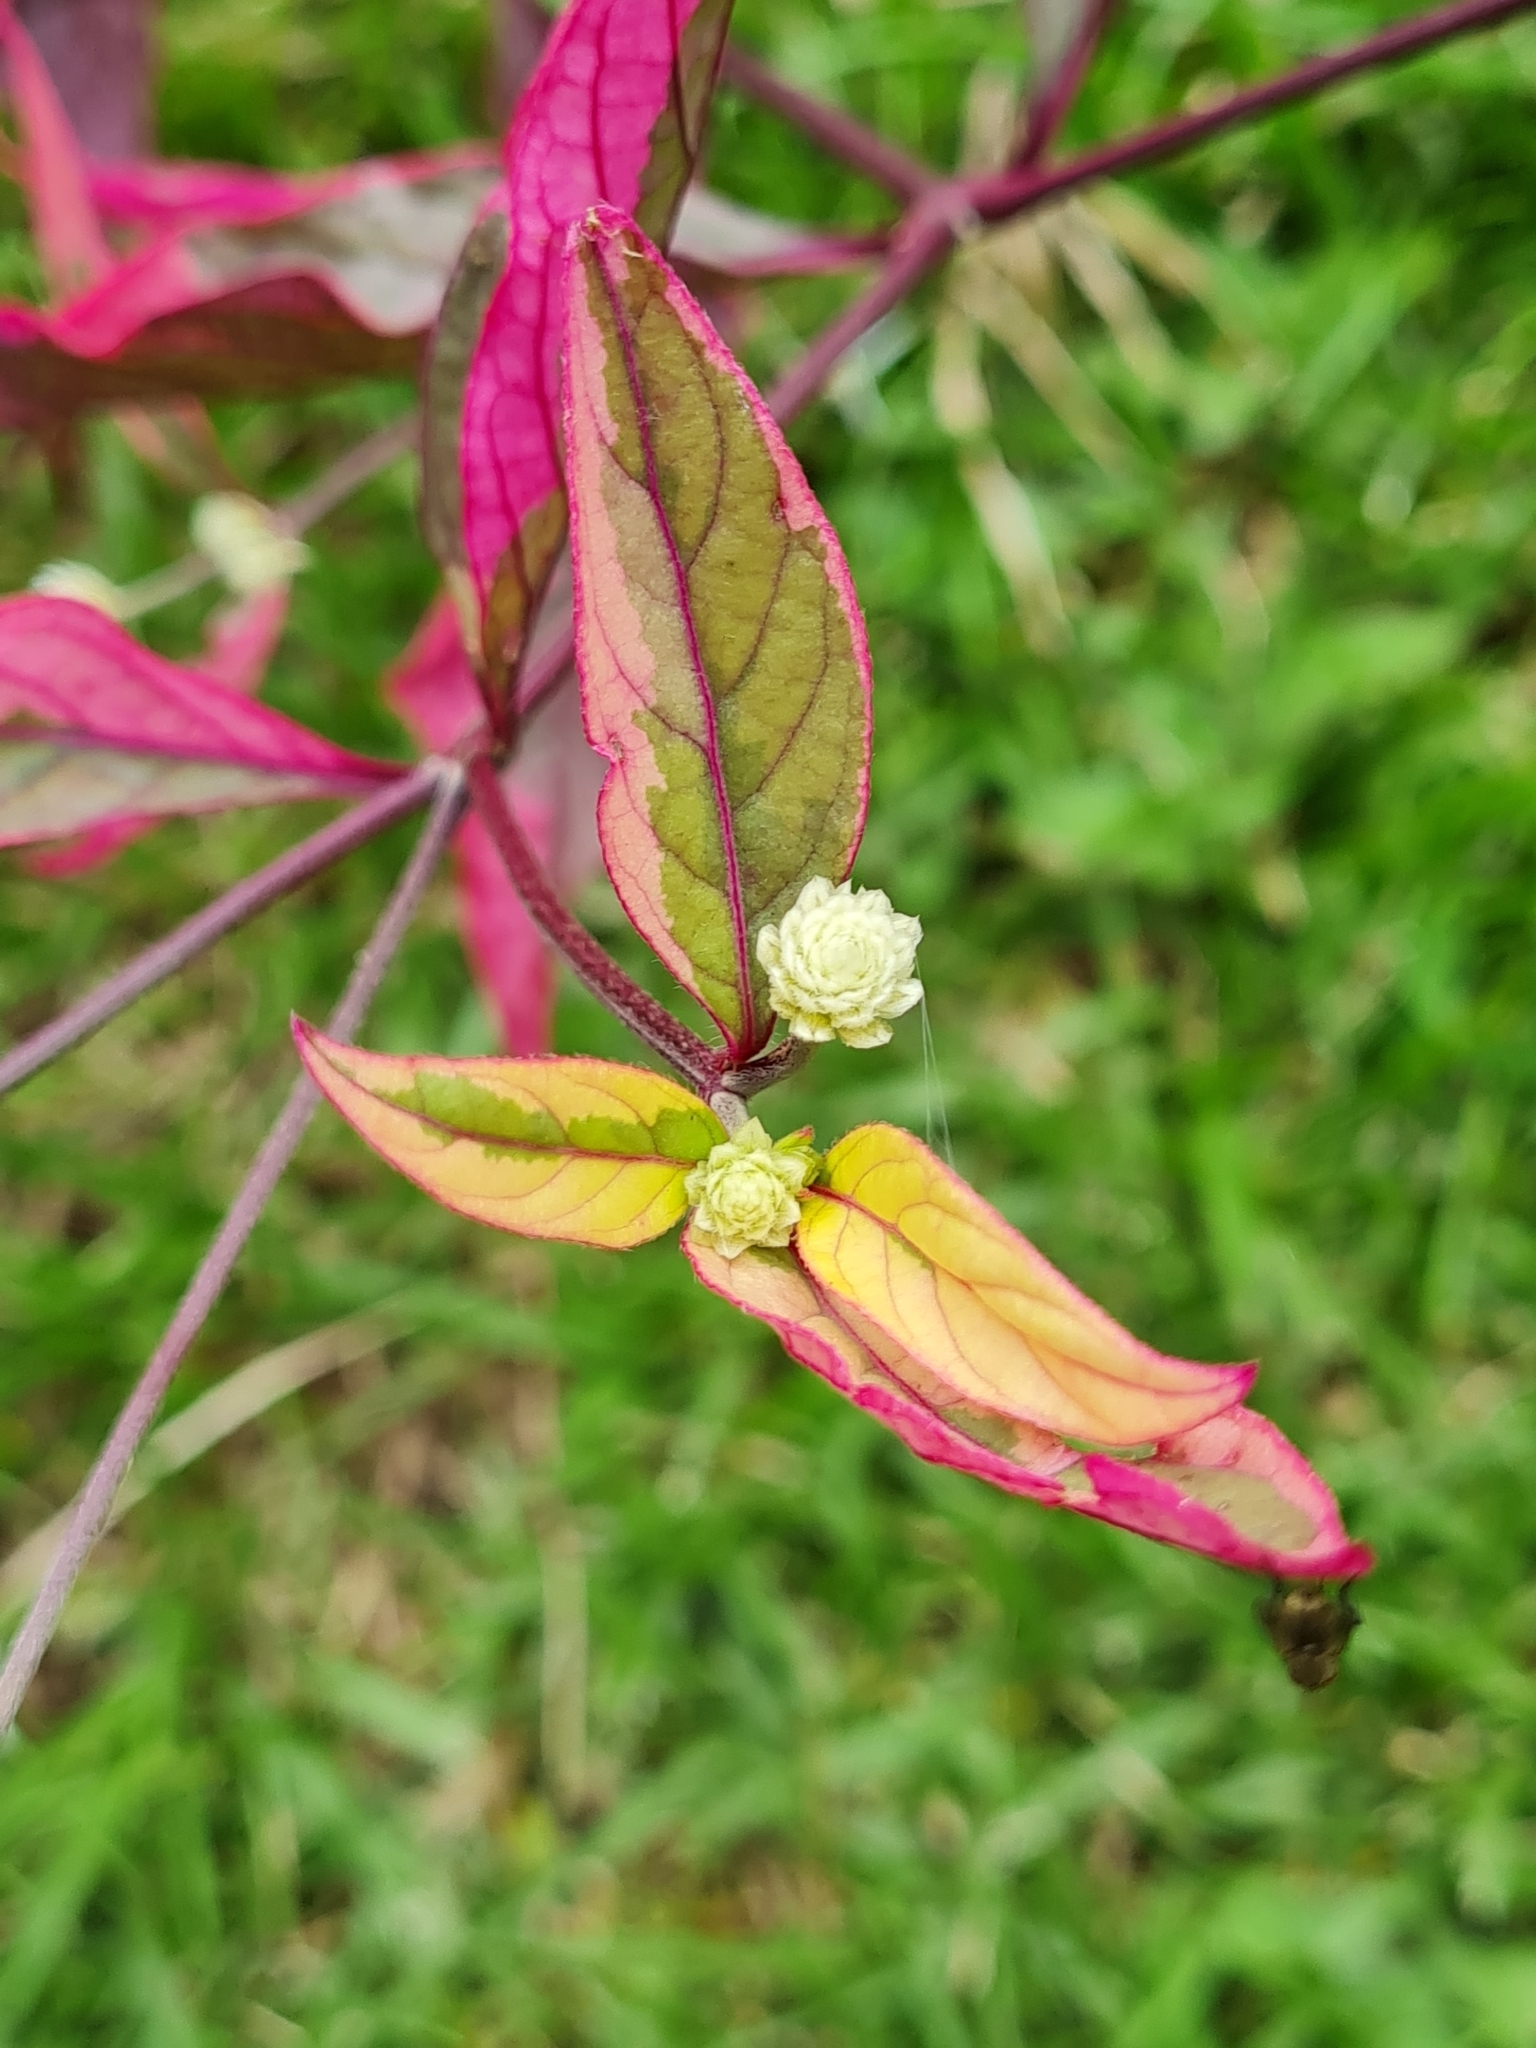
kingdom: Plantae
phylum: Tracheophyta
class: Magnoliopsida
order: Caryophyllales
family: Amaranthaceae
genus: Alternanthera
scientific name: Alternanthera brasiliana
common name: Brazilian joyweed
